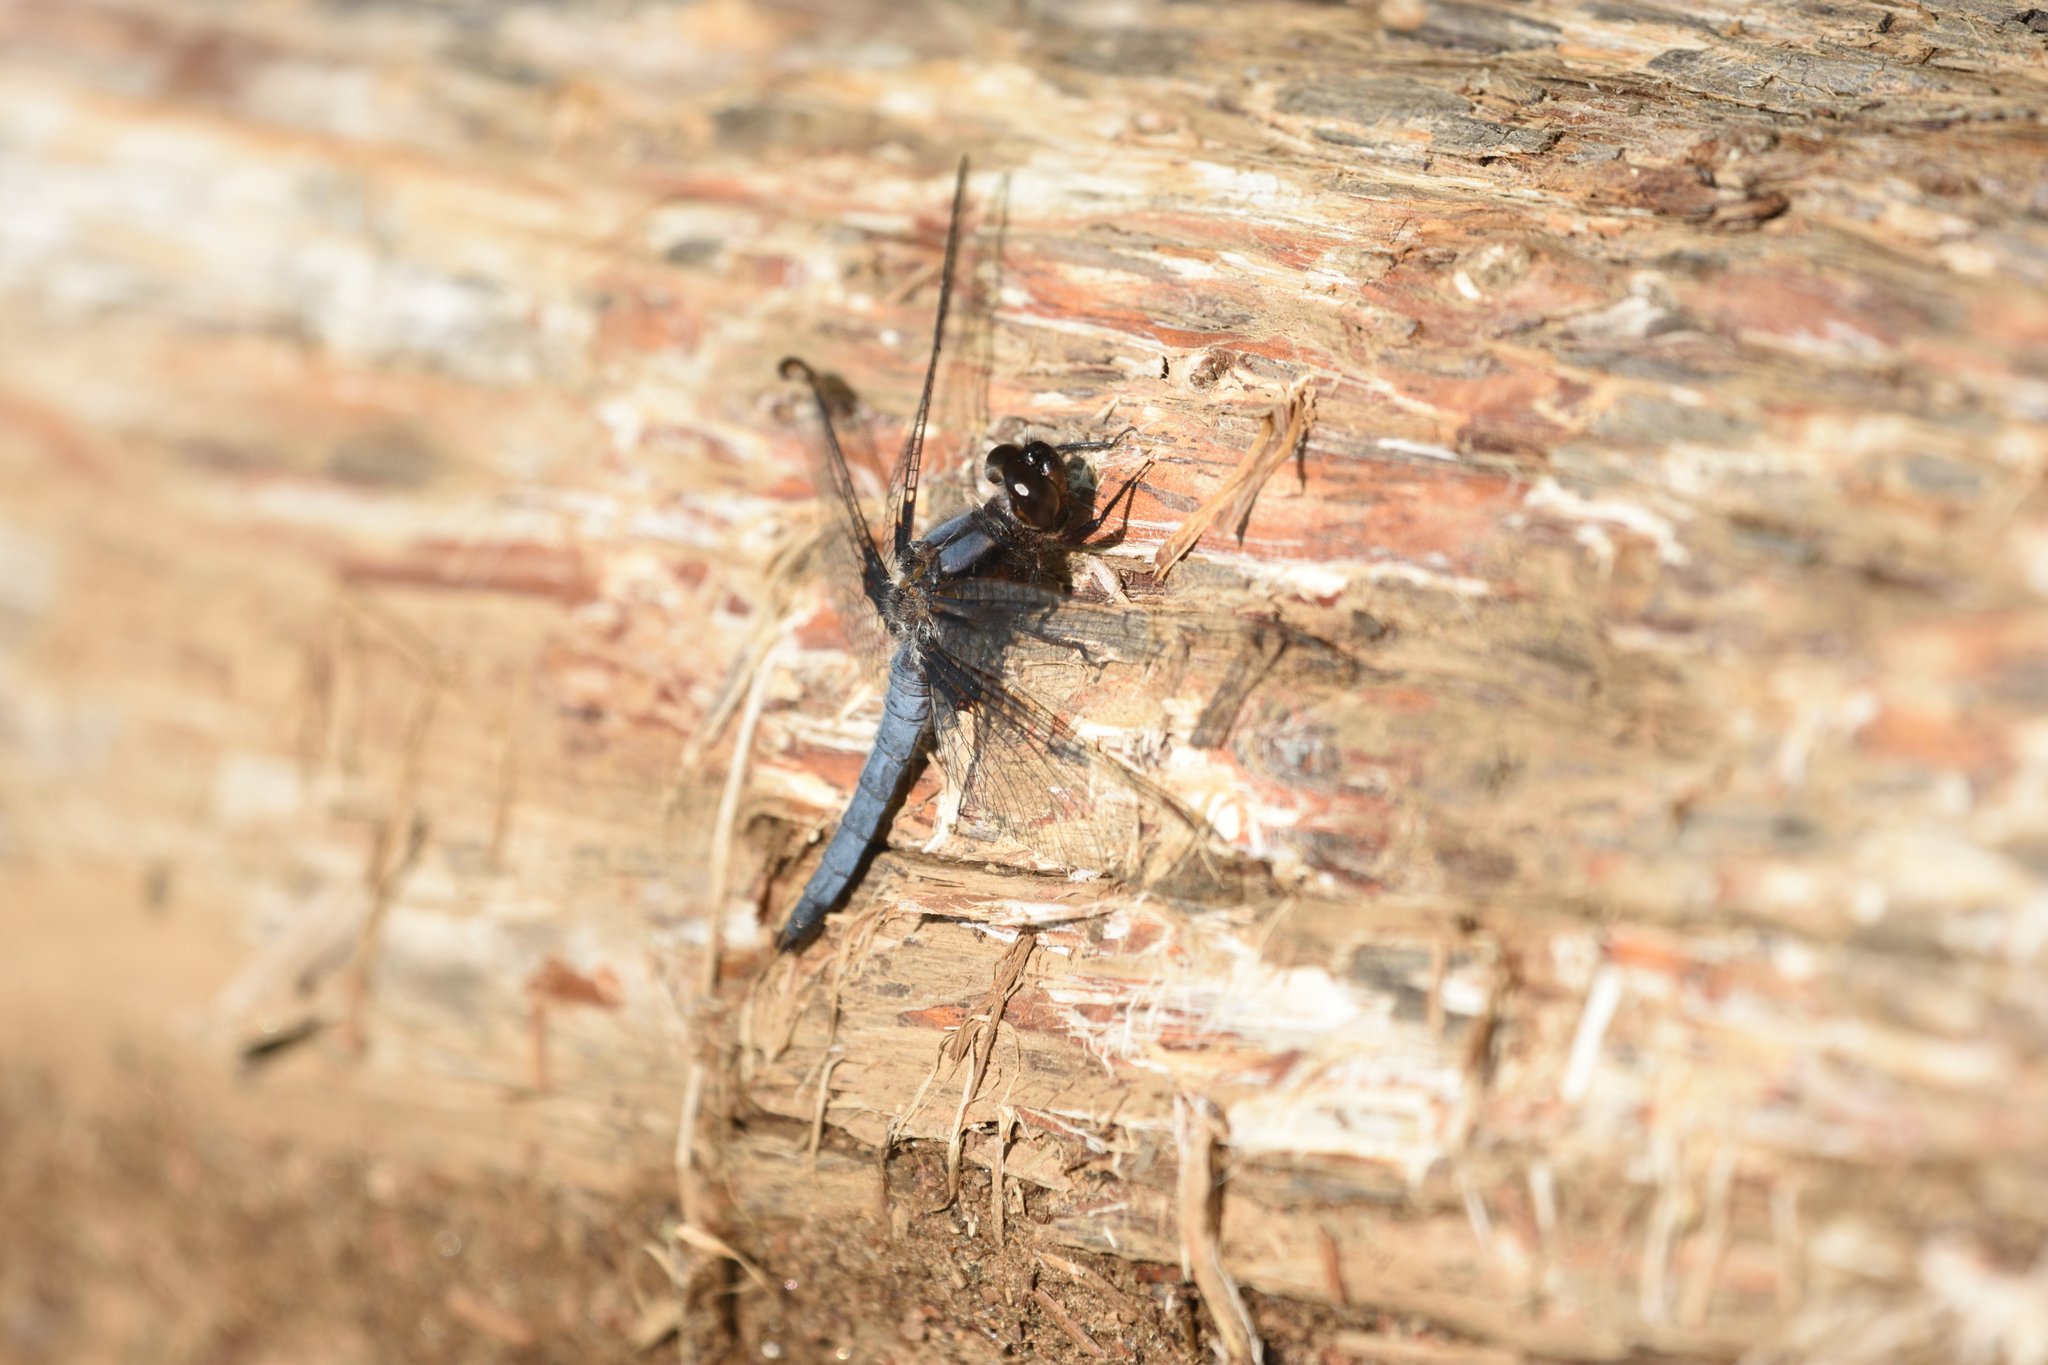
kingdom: Animalia
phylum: Arthropoda
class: Insecta
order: Odonata
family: Libellulidae
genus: Ladona
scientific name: Ladona deplanata
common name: Blue corporal
